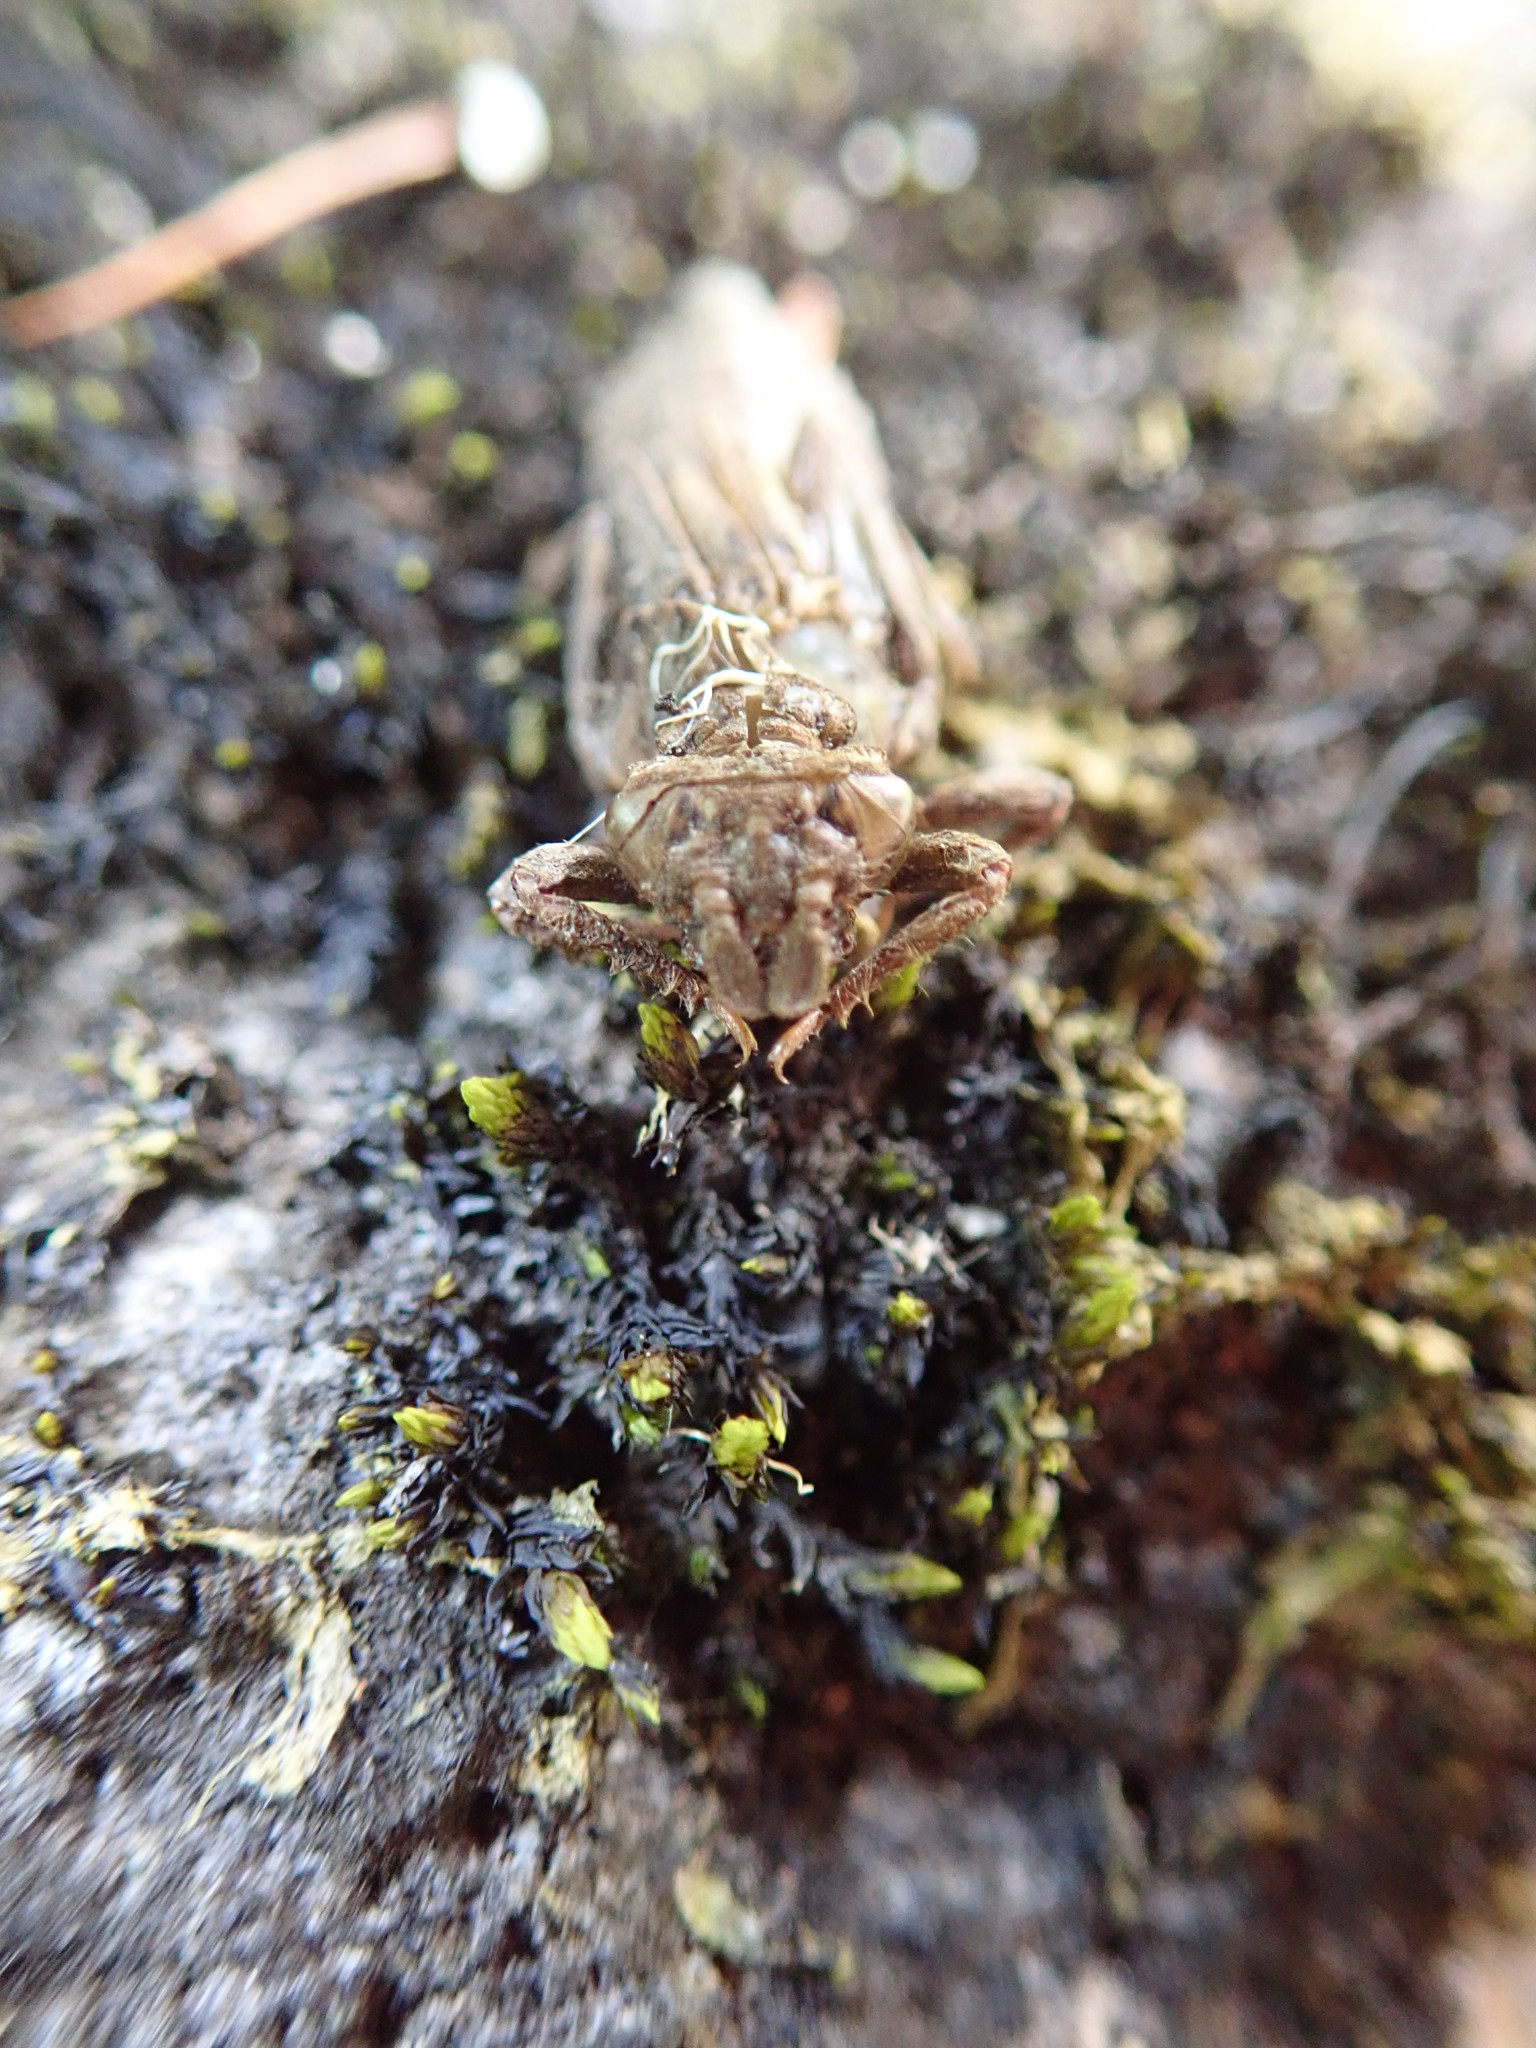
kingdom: Animalia
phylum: Arthropoda
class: Insecta
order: Odonata
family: Gomphidae
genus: Octogomphus
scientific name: Octogomphus specularis
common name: Grappletail
